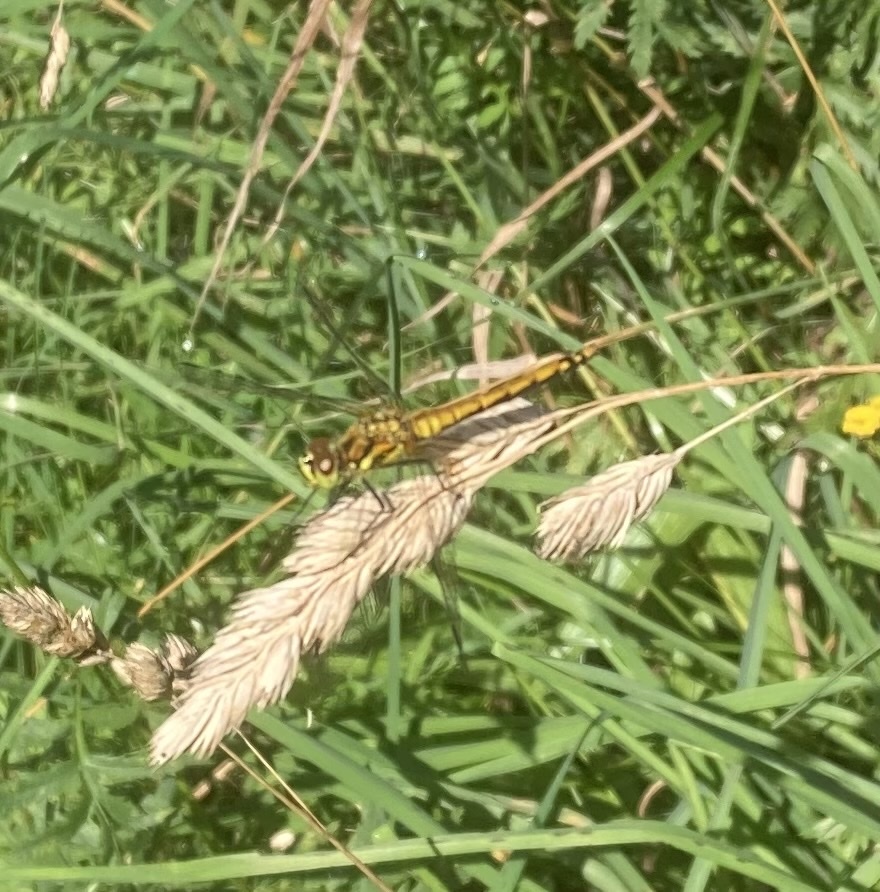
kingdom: Animalia
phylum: Arthropoda
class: Insecta
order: Odonata
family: Libellulidae
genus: Sympetrum
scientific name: Sympetrum danae
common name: Black darter
